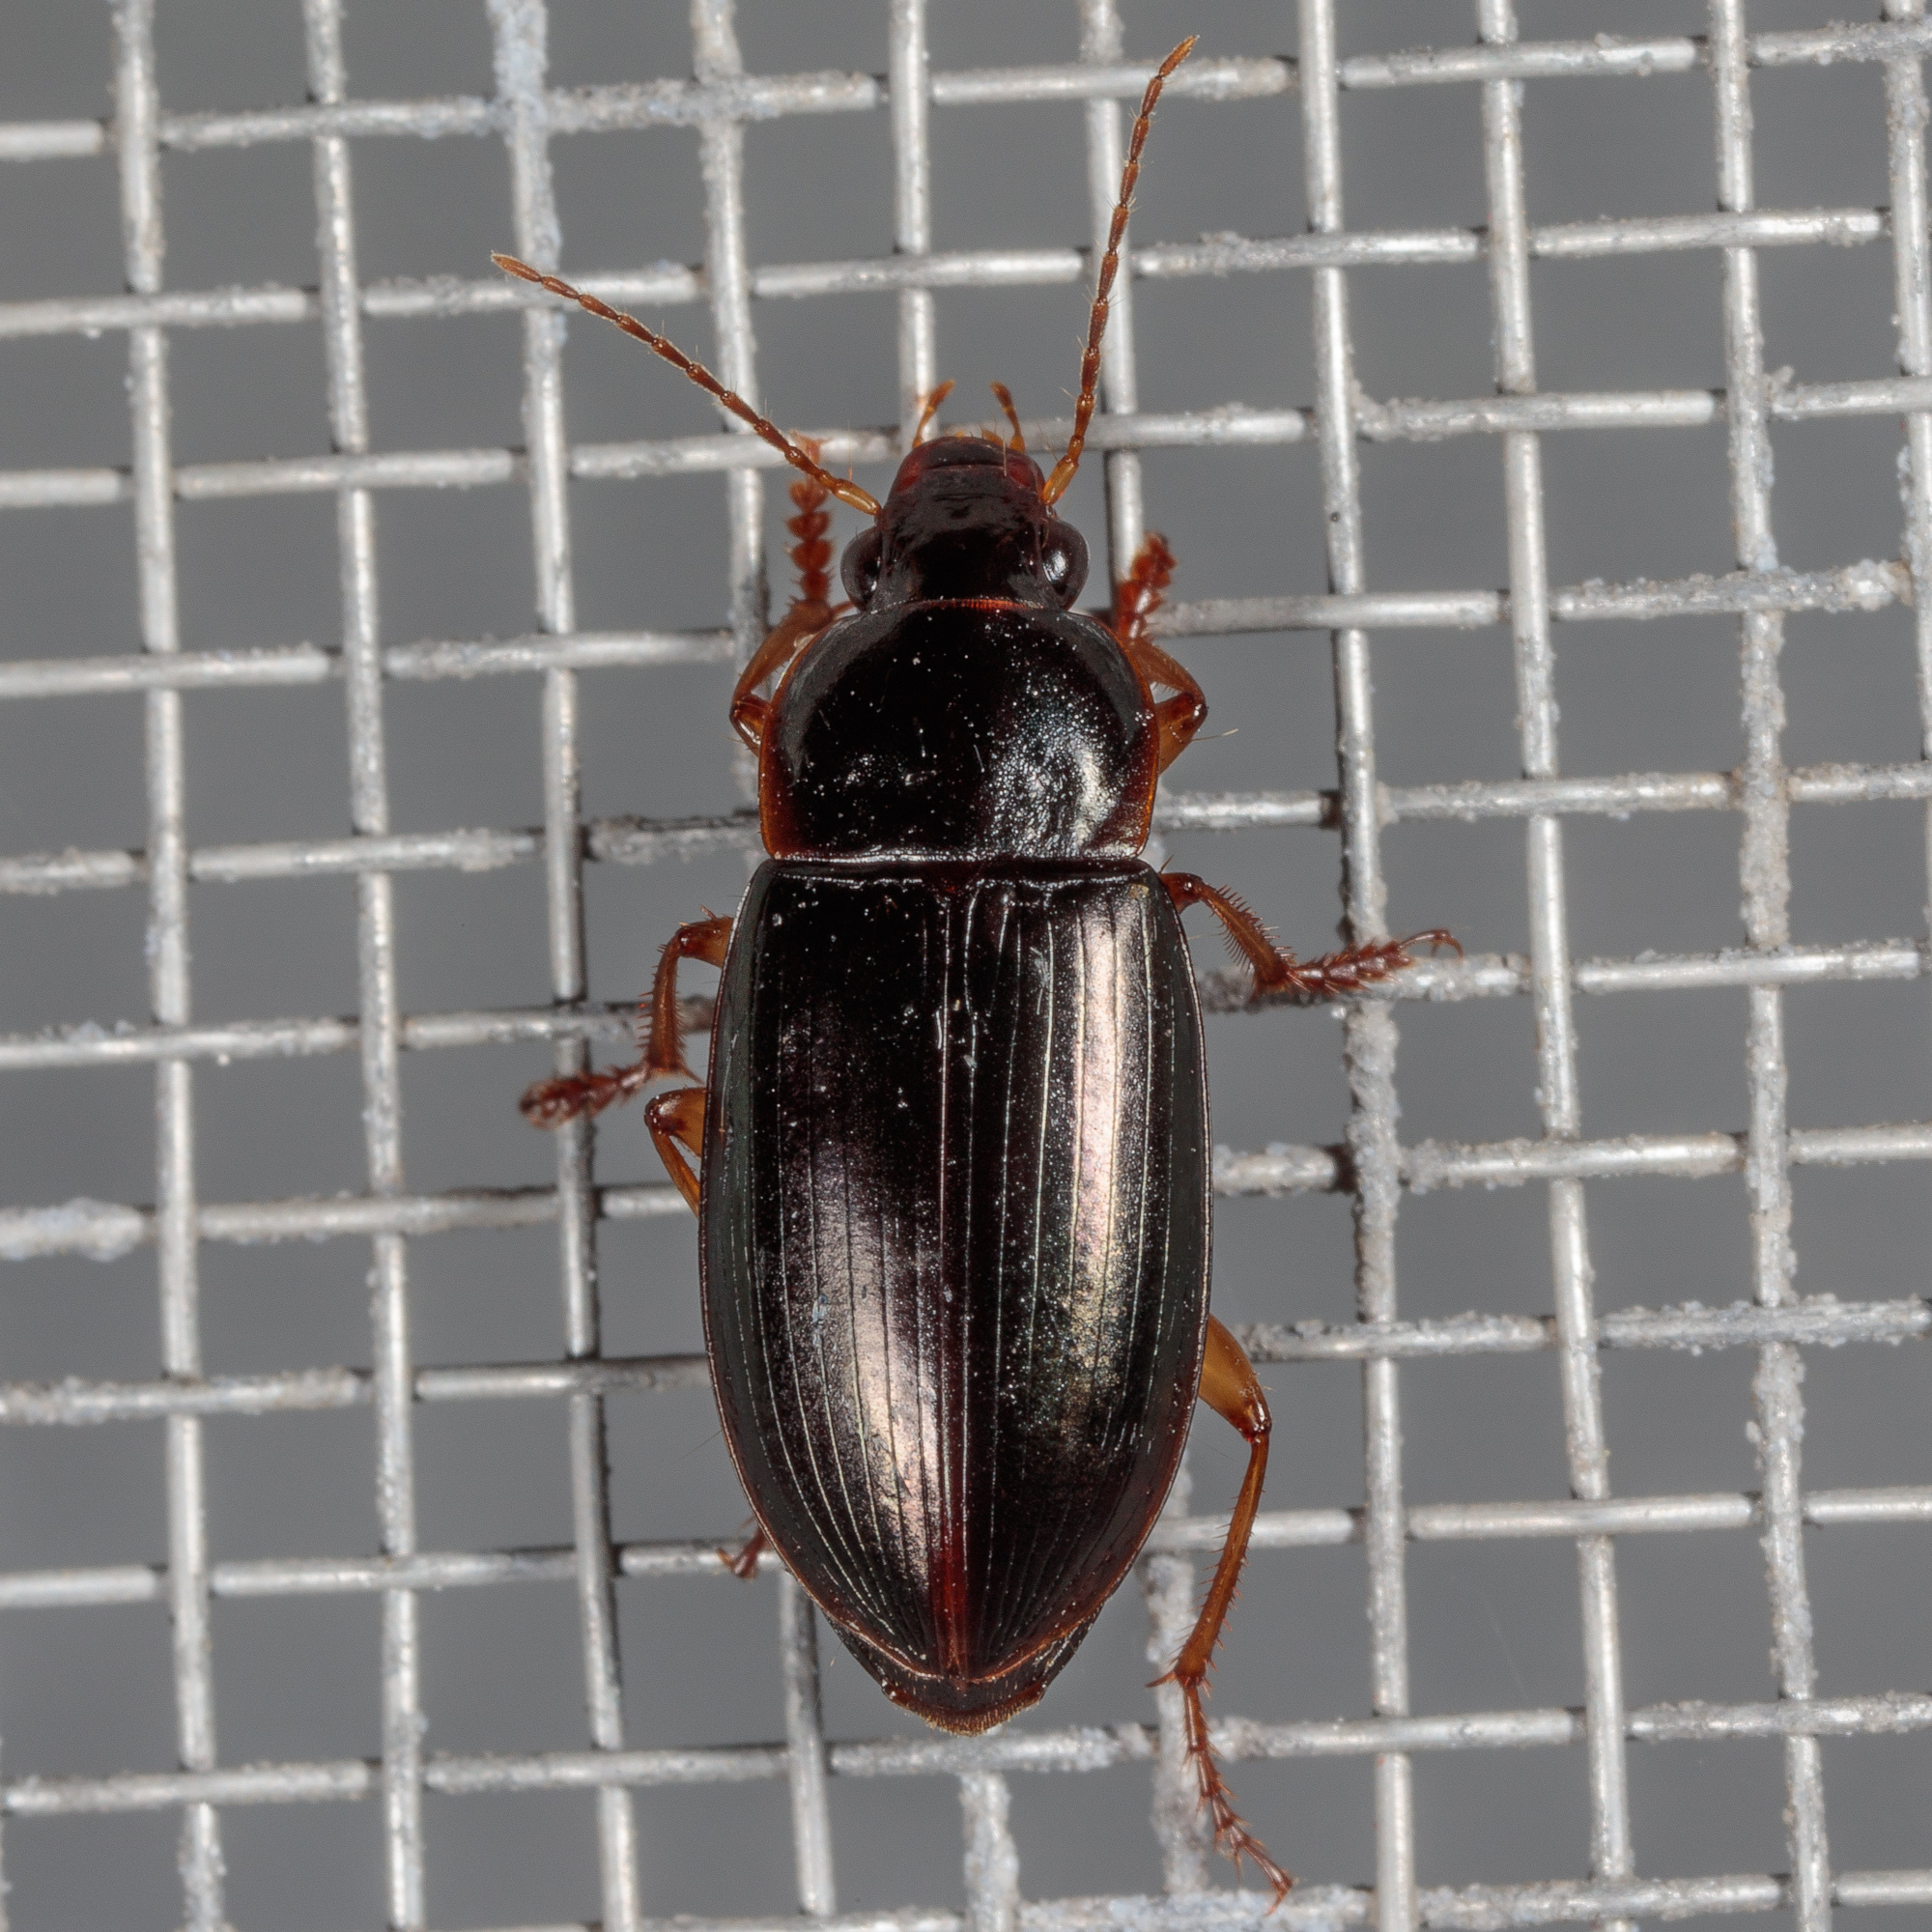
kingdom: Animalia
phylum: Arthropoda
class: Insecta
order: Coleoptera
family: Carabidae
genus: Notiobia
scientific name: Notiobia terminata
